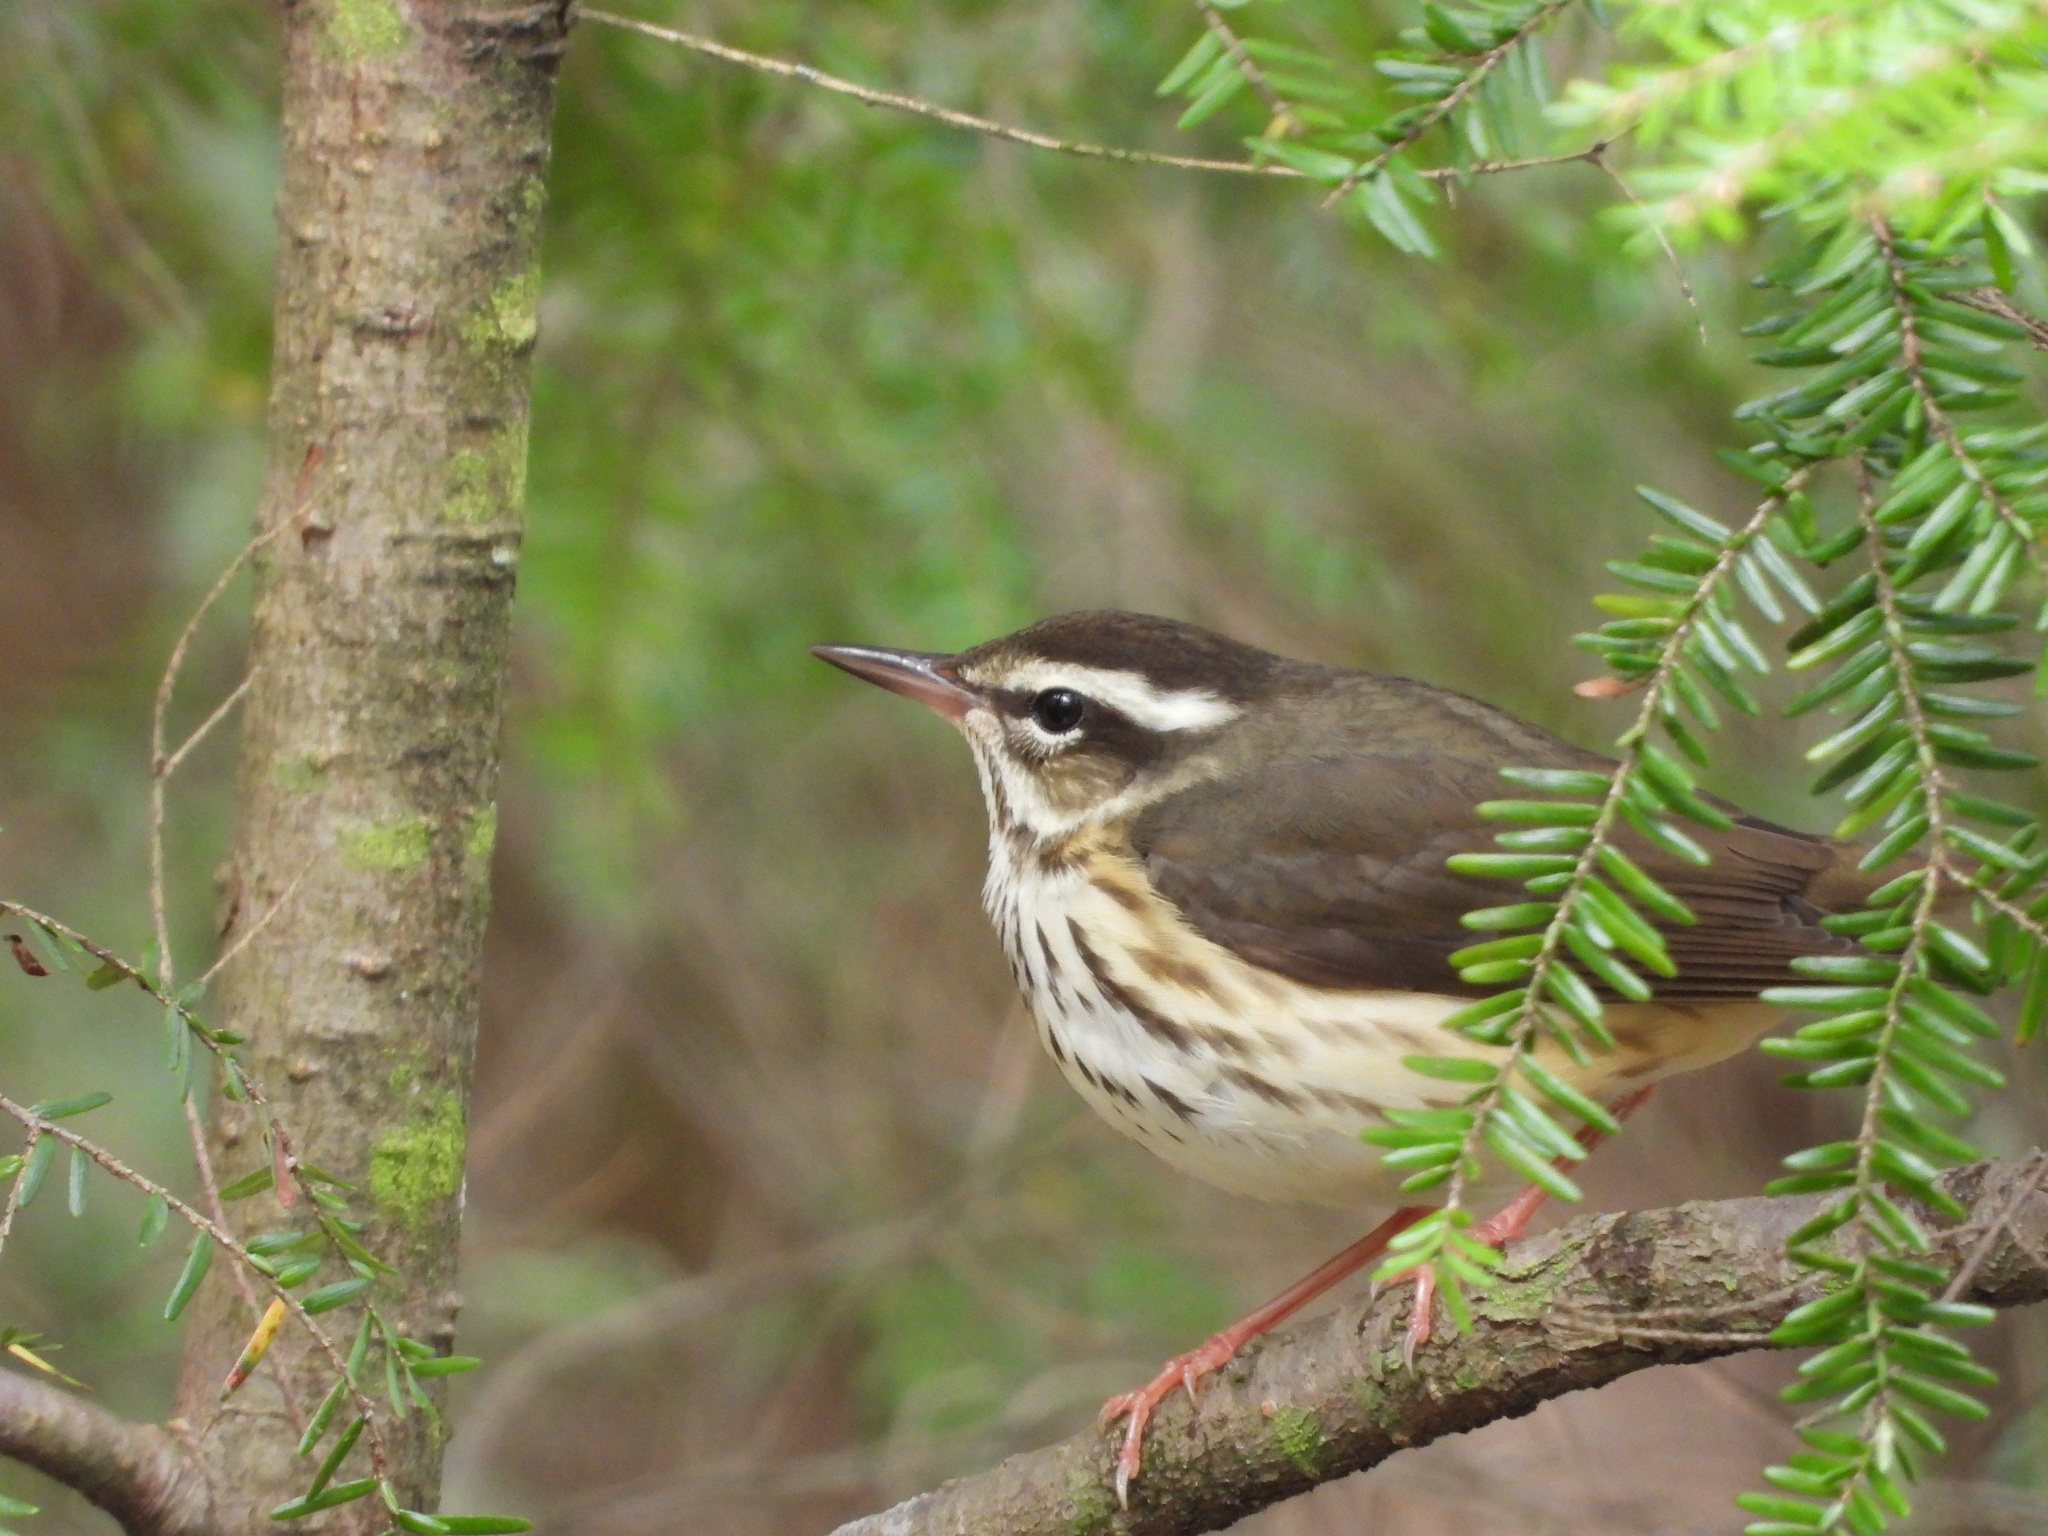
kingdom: Animalia
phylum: Chordata
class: Aves
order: Passeriformes
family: Parulidae
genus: Parkesia
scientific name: Parkesia motacilla
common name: Louisiana waterthrush
